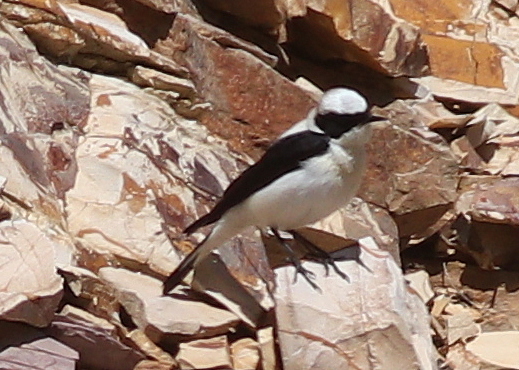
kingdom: Animalia
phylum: Chordata
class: Aves
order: Passeriformes
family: Muscicapidae
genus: Oenanthe
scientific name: Oenanthe hispanica
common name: Black-eared wheatear
